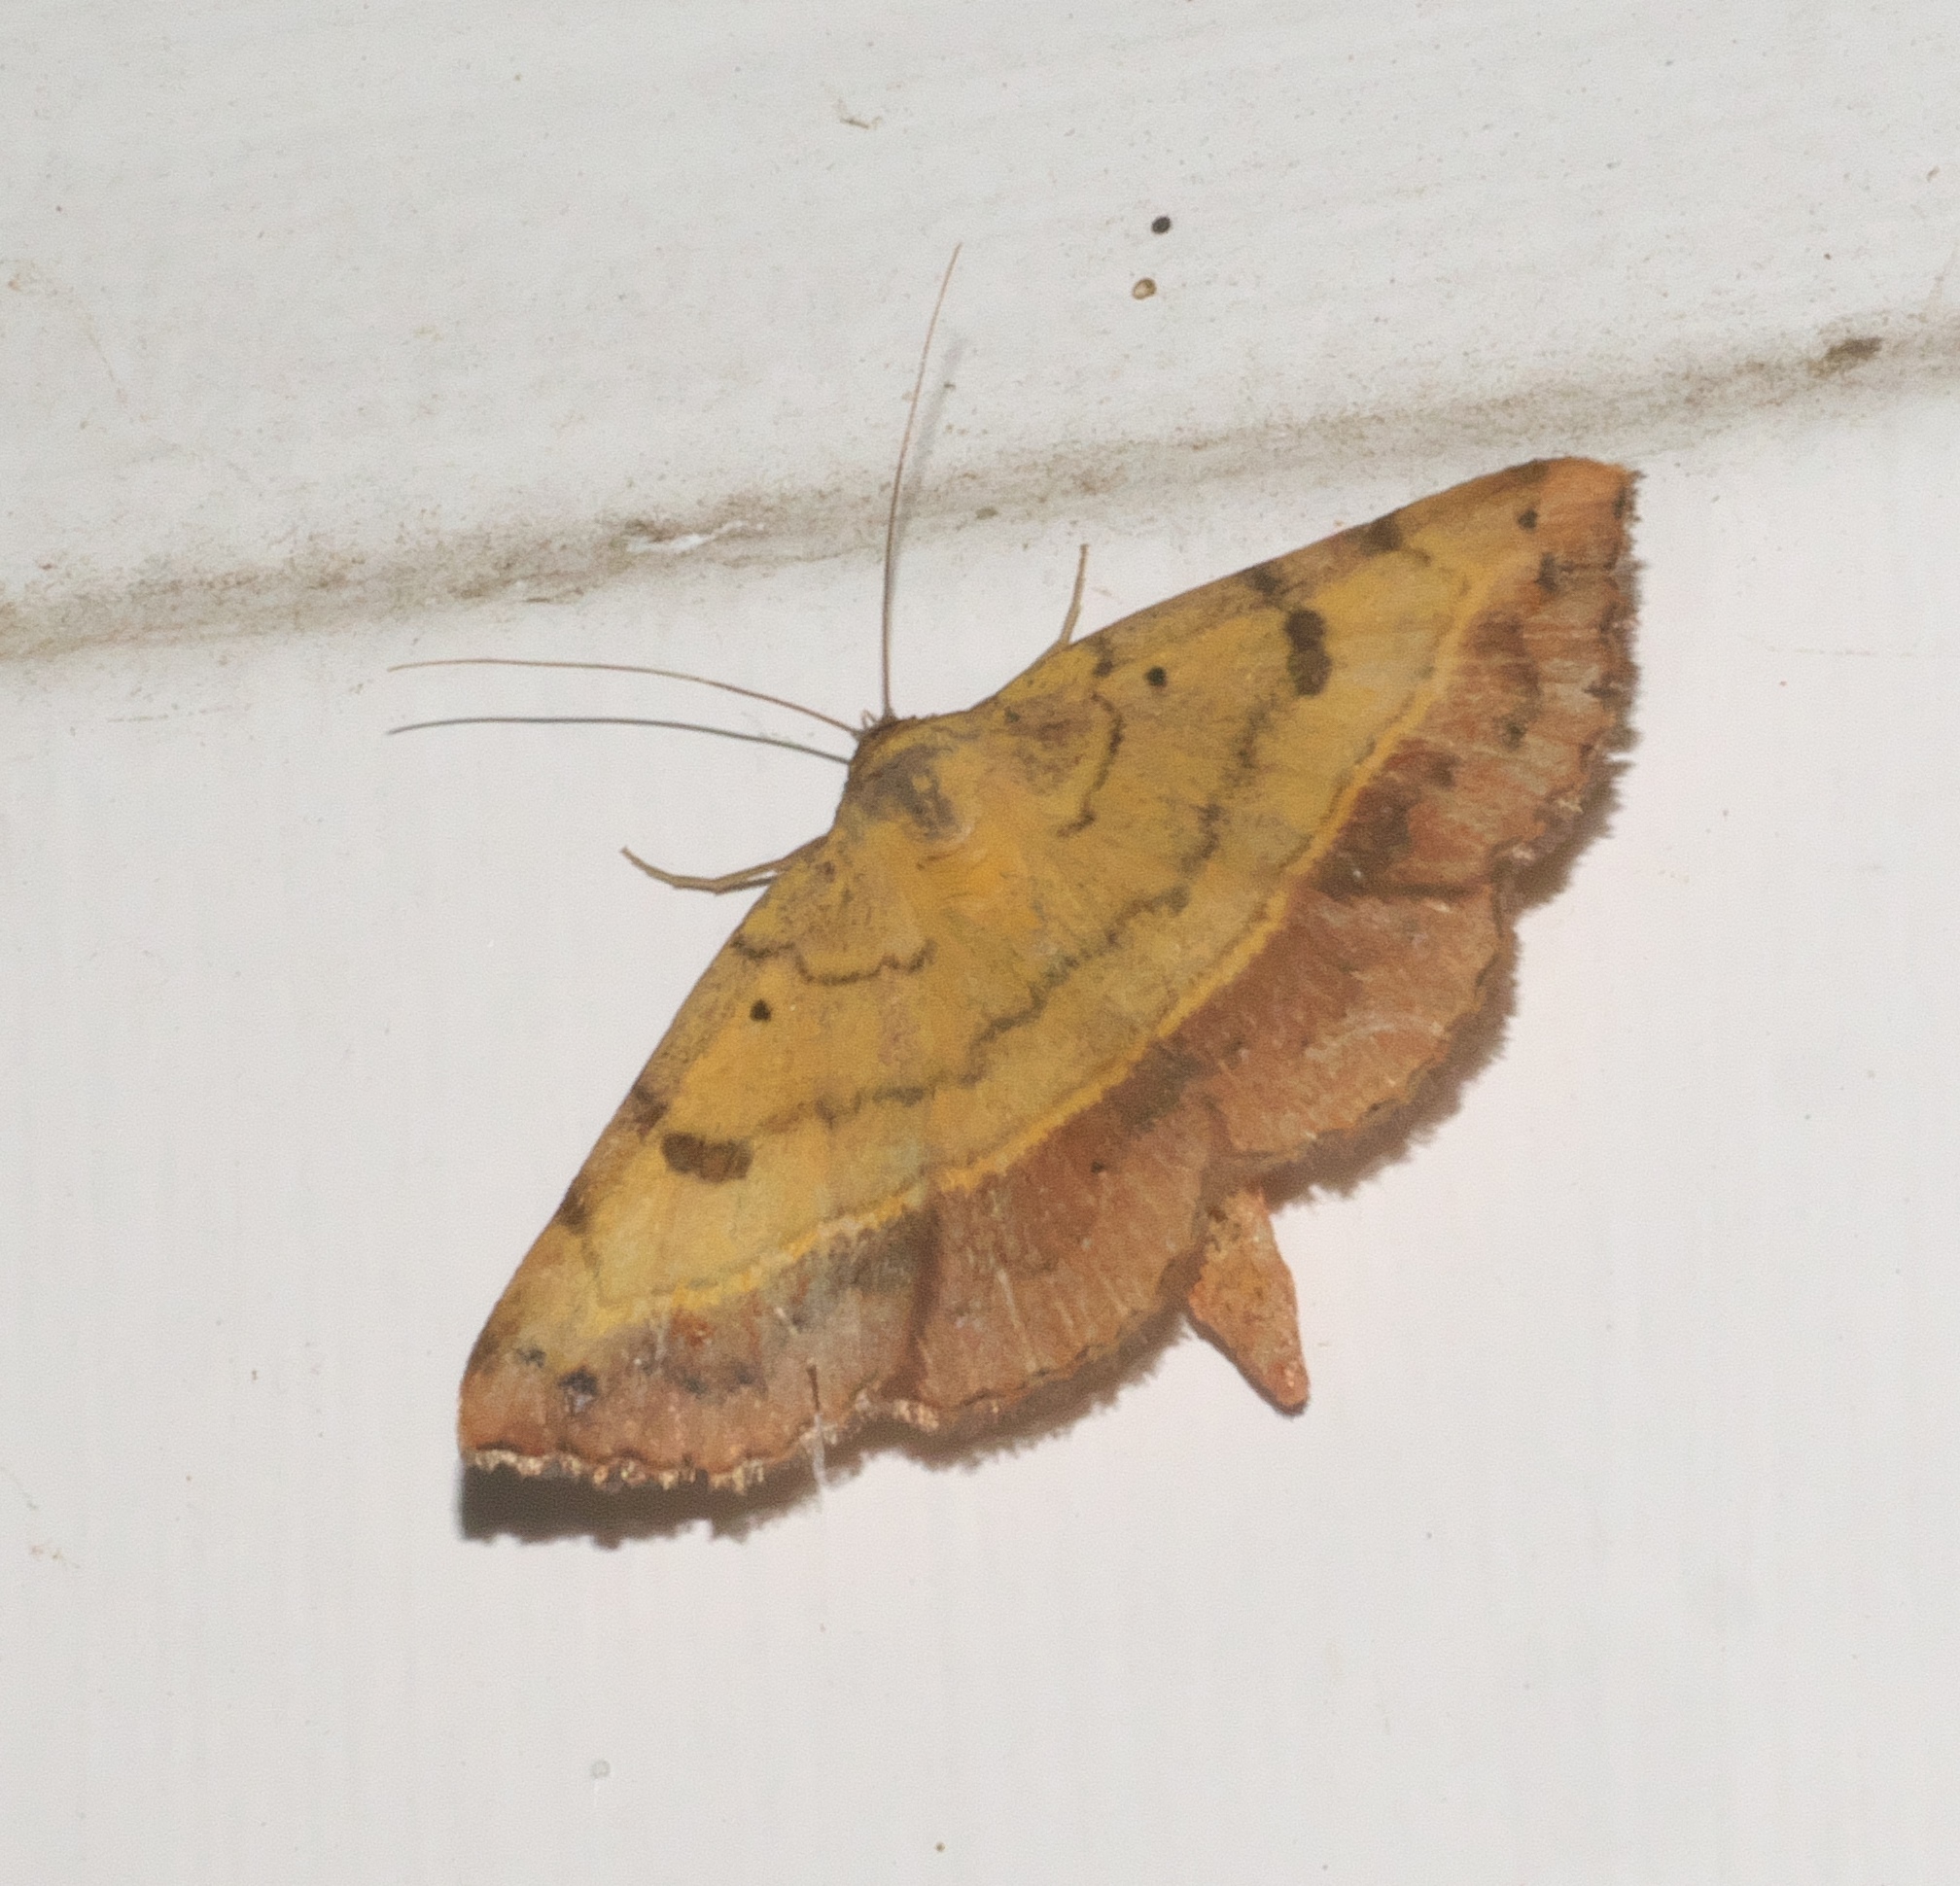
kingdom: Animalia
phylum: Arthropoda
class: Insecta
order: Lepidoptera
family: Erebidae
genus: Hemeroplanis
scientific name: Hemeroplanis scopulepes
